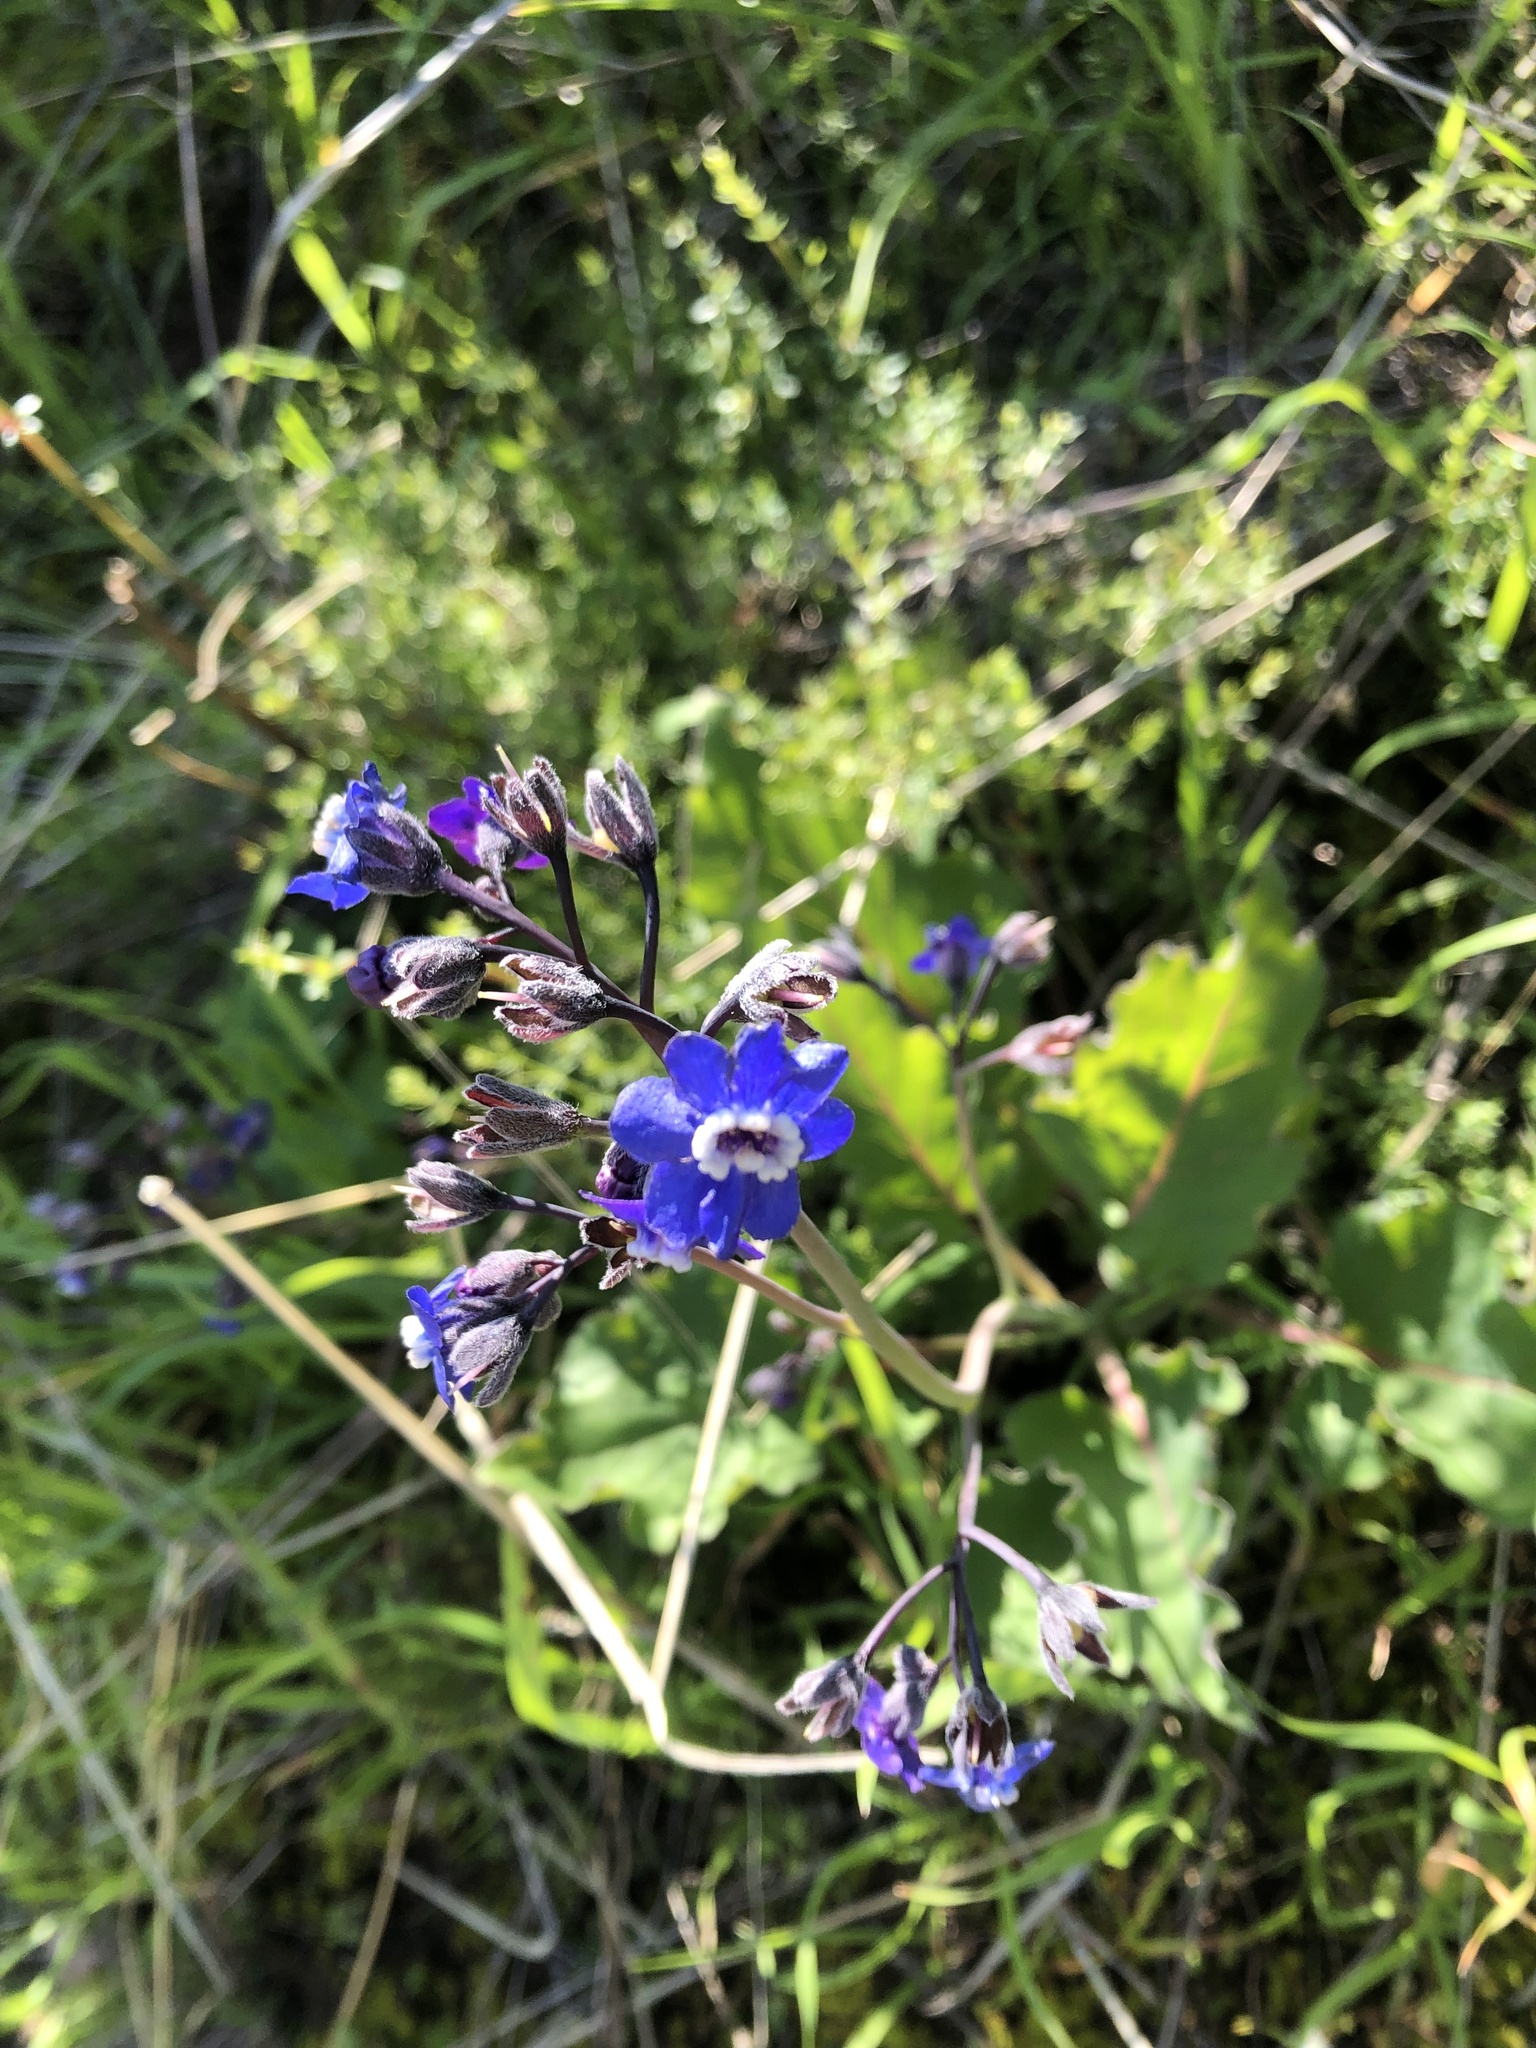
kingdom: Plantae
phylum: Tracheophyta
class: Magnoliopsida
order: Boraginales
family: Boraginaceae
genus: Adelinia
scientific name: Adelinia grande
